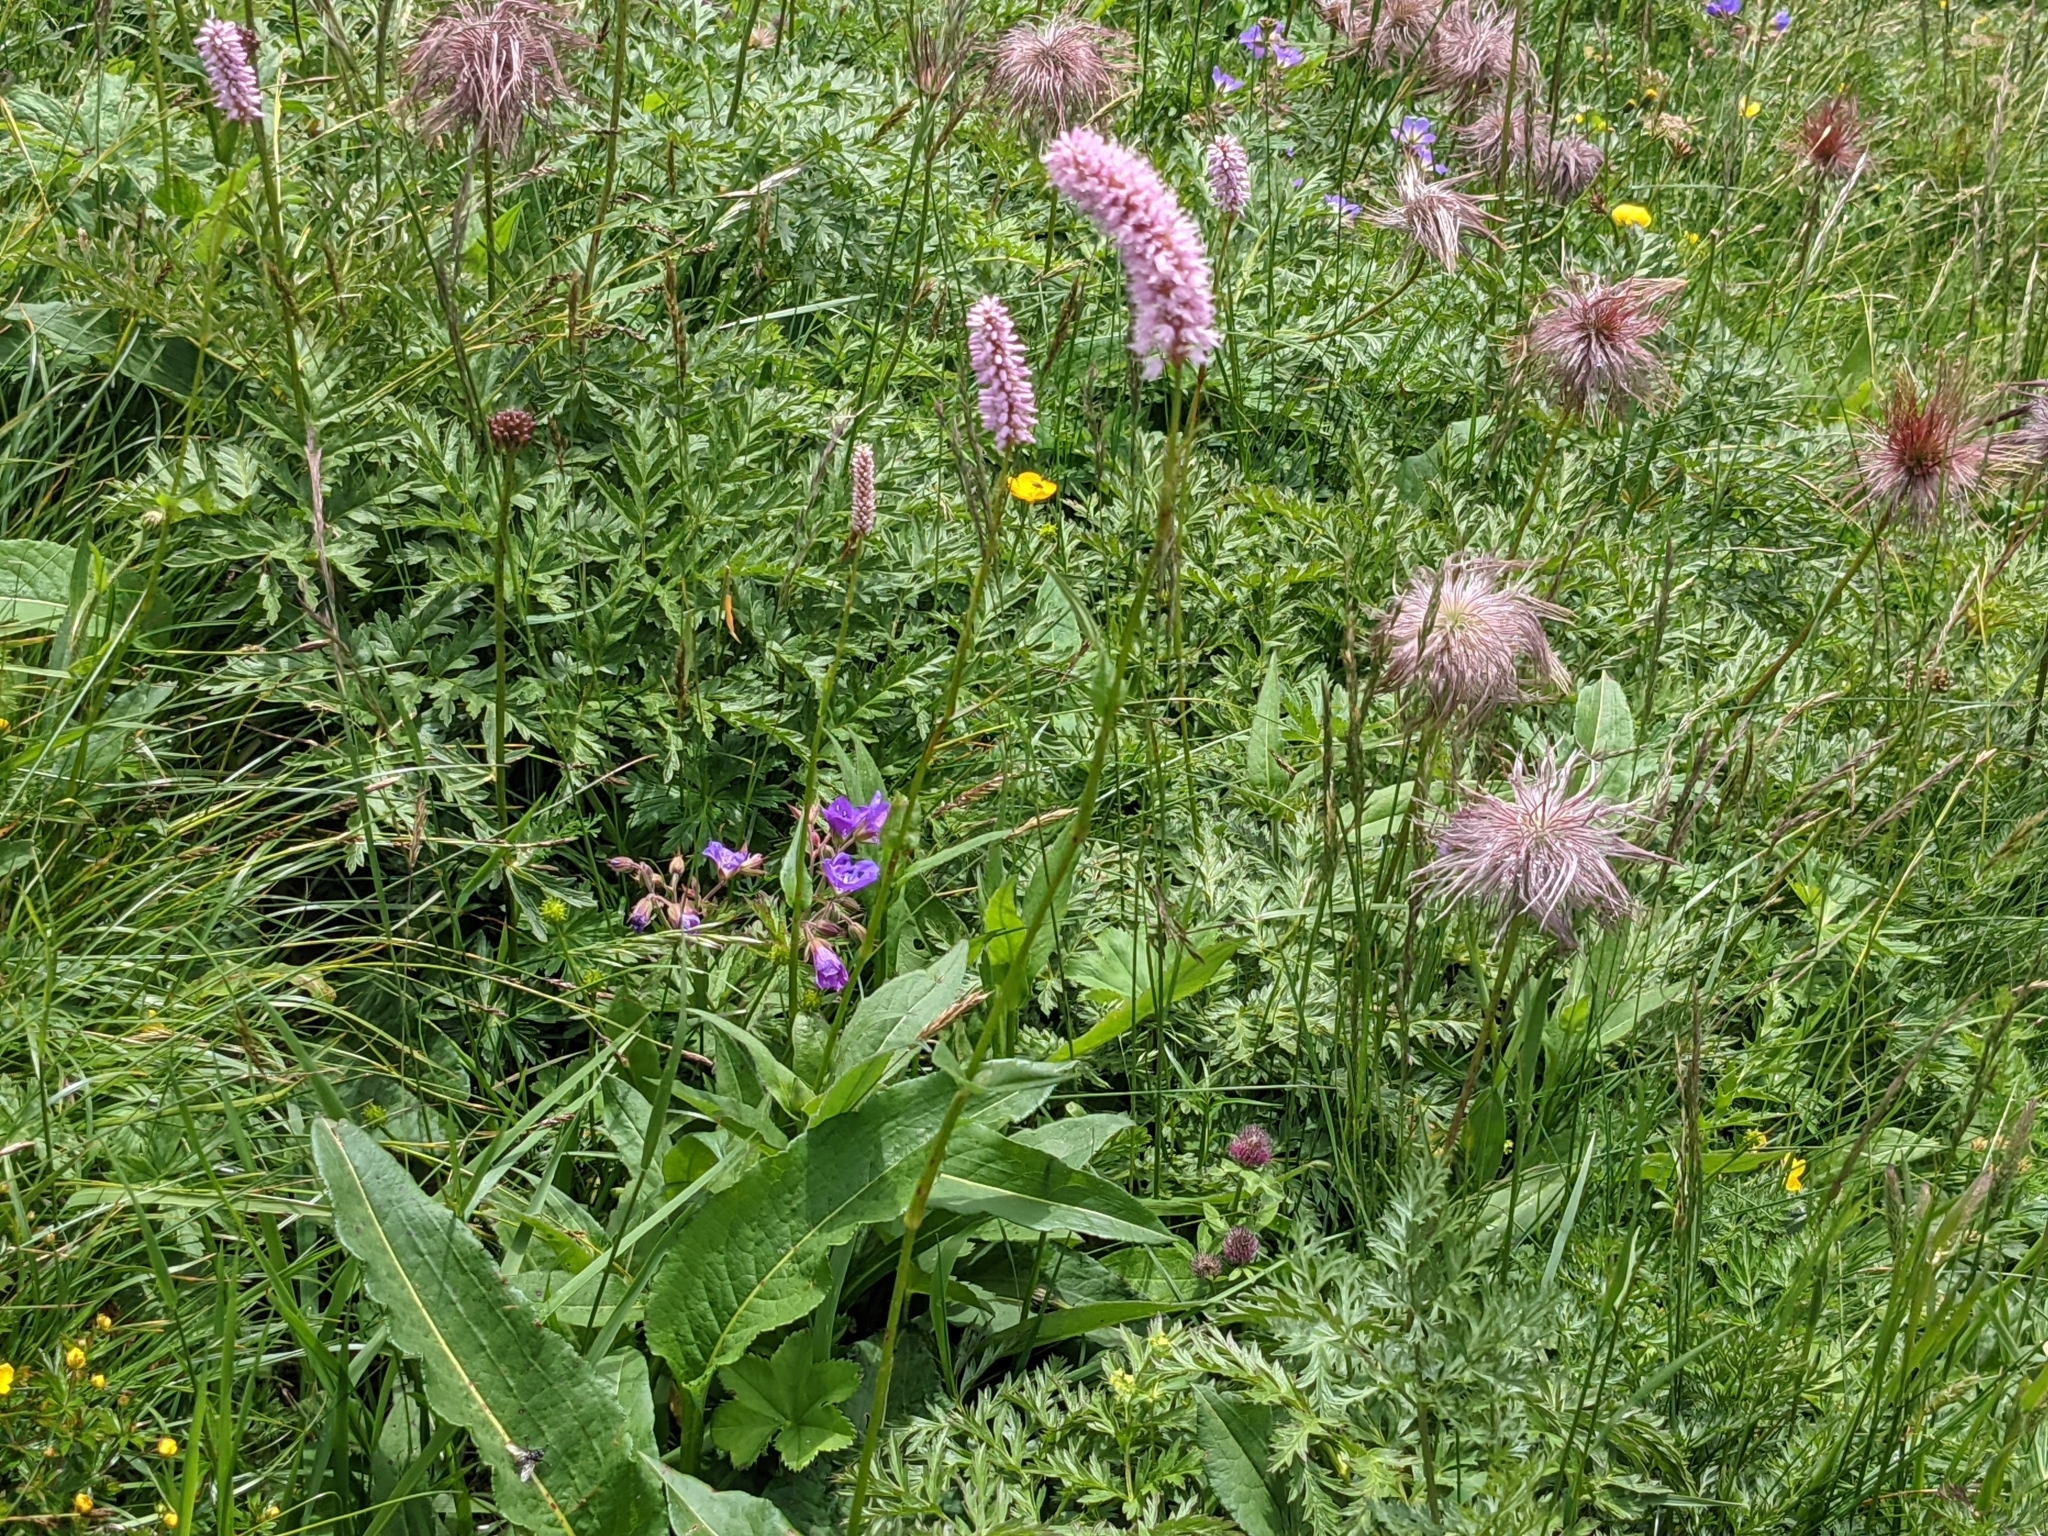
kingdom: Plantae
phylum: Tracheophyta
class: Magnoliopsida
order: Caryophyllales
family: Polygonaceae
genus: Bistorta
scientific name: Bistorta officinalis
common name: Common bistort
